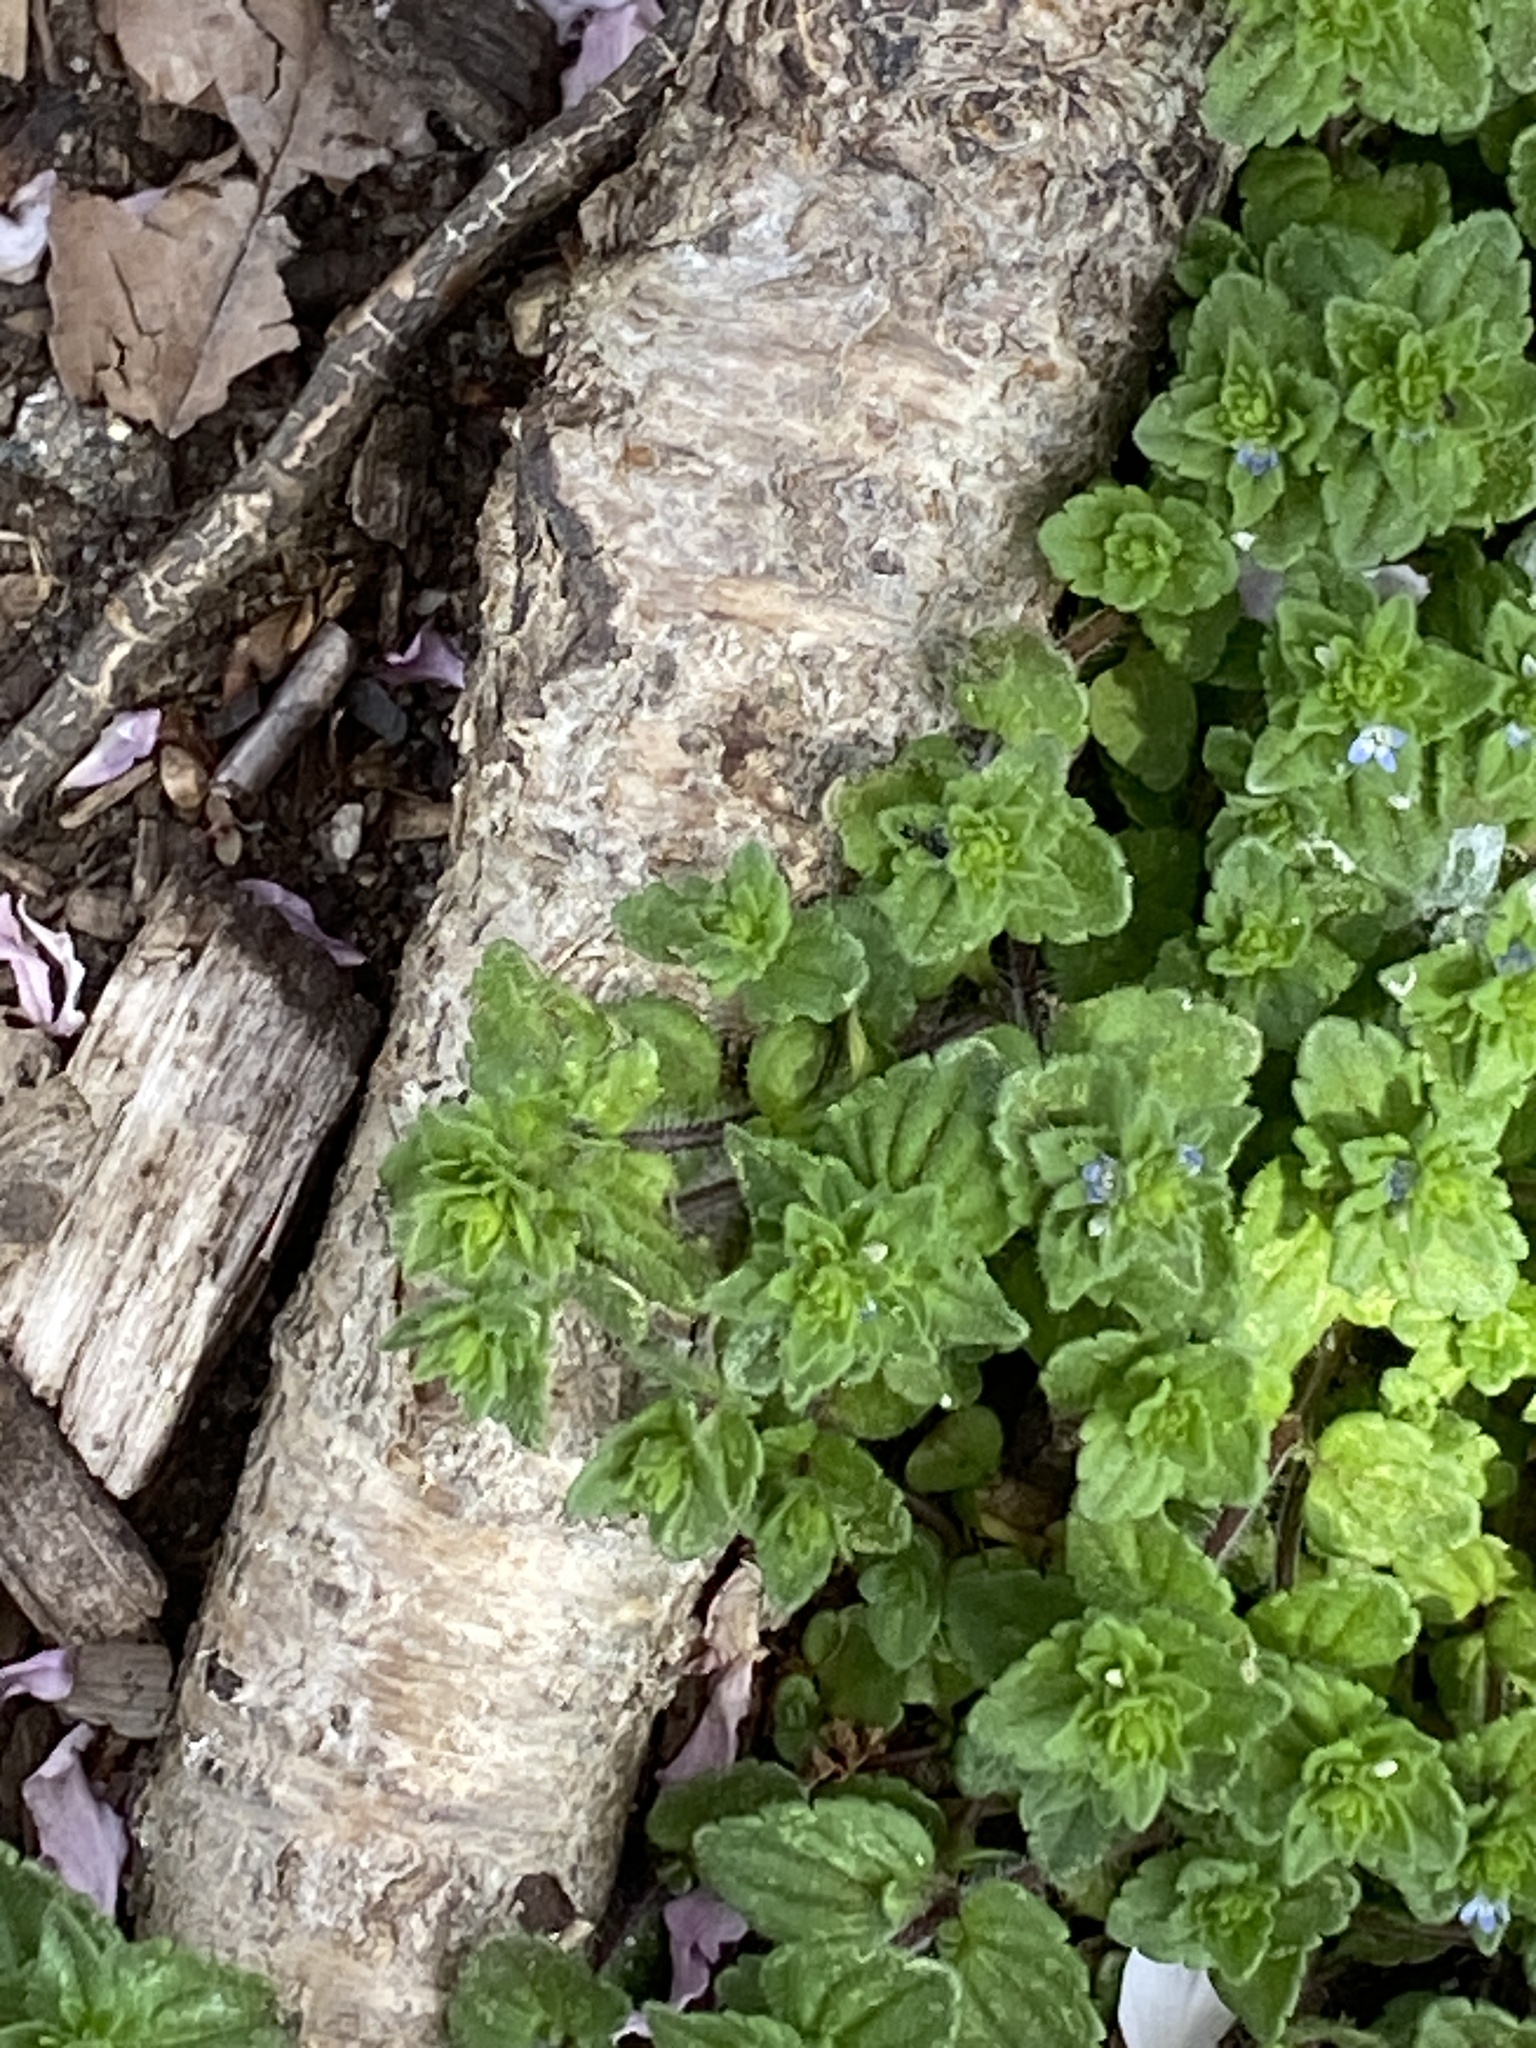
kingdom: Plantae
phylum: Tracheophyta
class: Magnoliopsida
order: Lamiales
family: Plantaginaceae
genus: Veronica
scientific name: Veronica arvensis
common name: Corn speedwell
